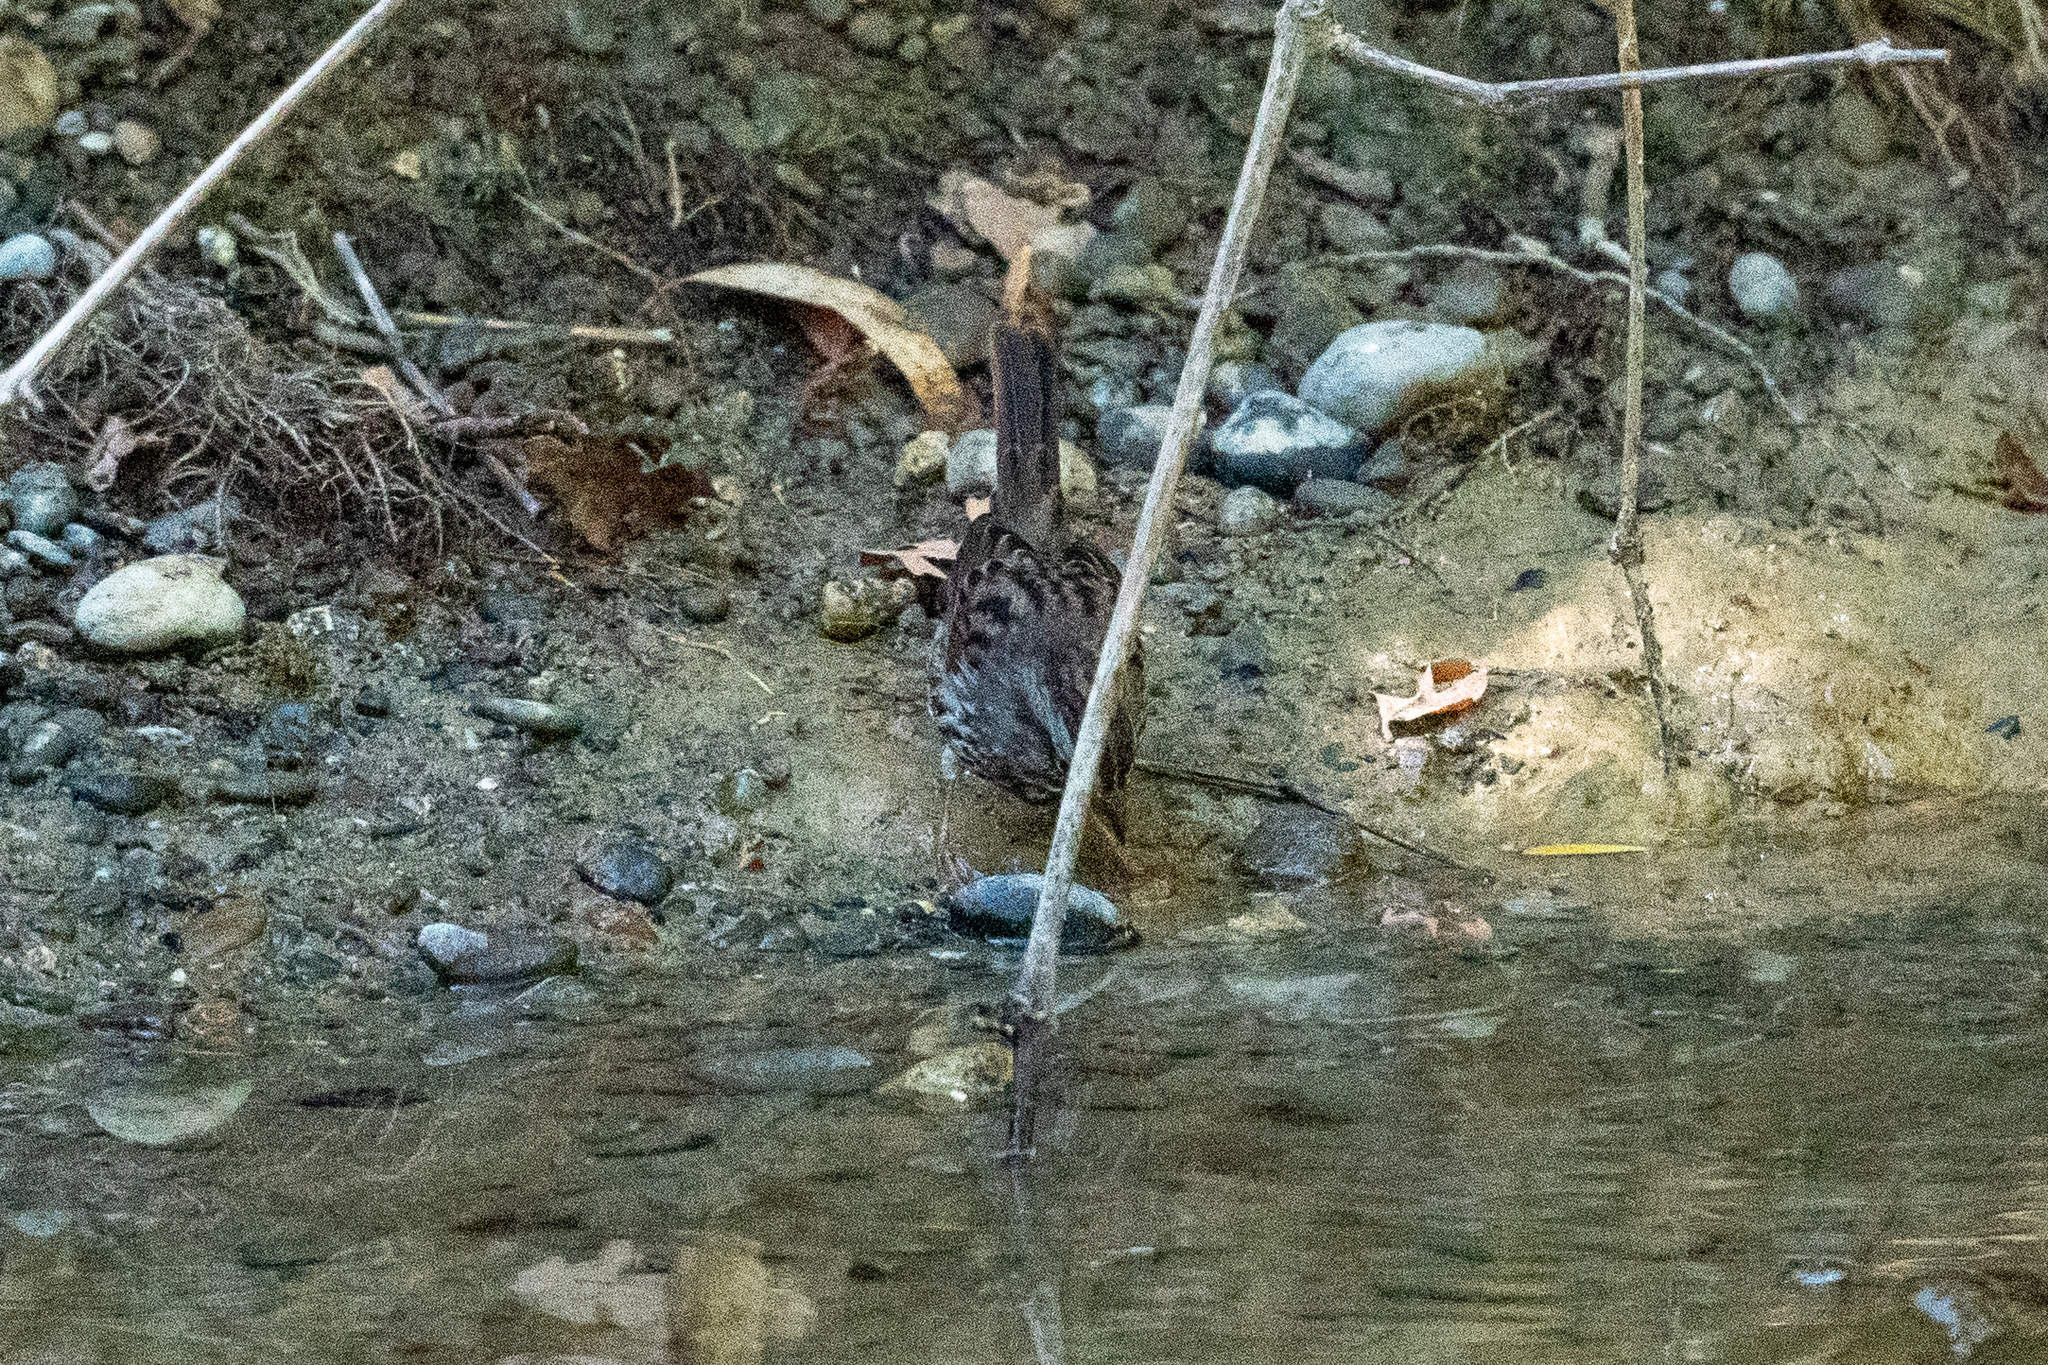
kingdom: Animalia
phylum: Chordata
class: Aves
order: Passeriformes
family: Passerellidae
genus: Melospiza
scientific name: Melospiza melodia
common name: Song sparrow
